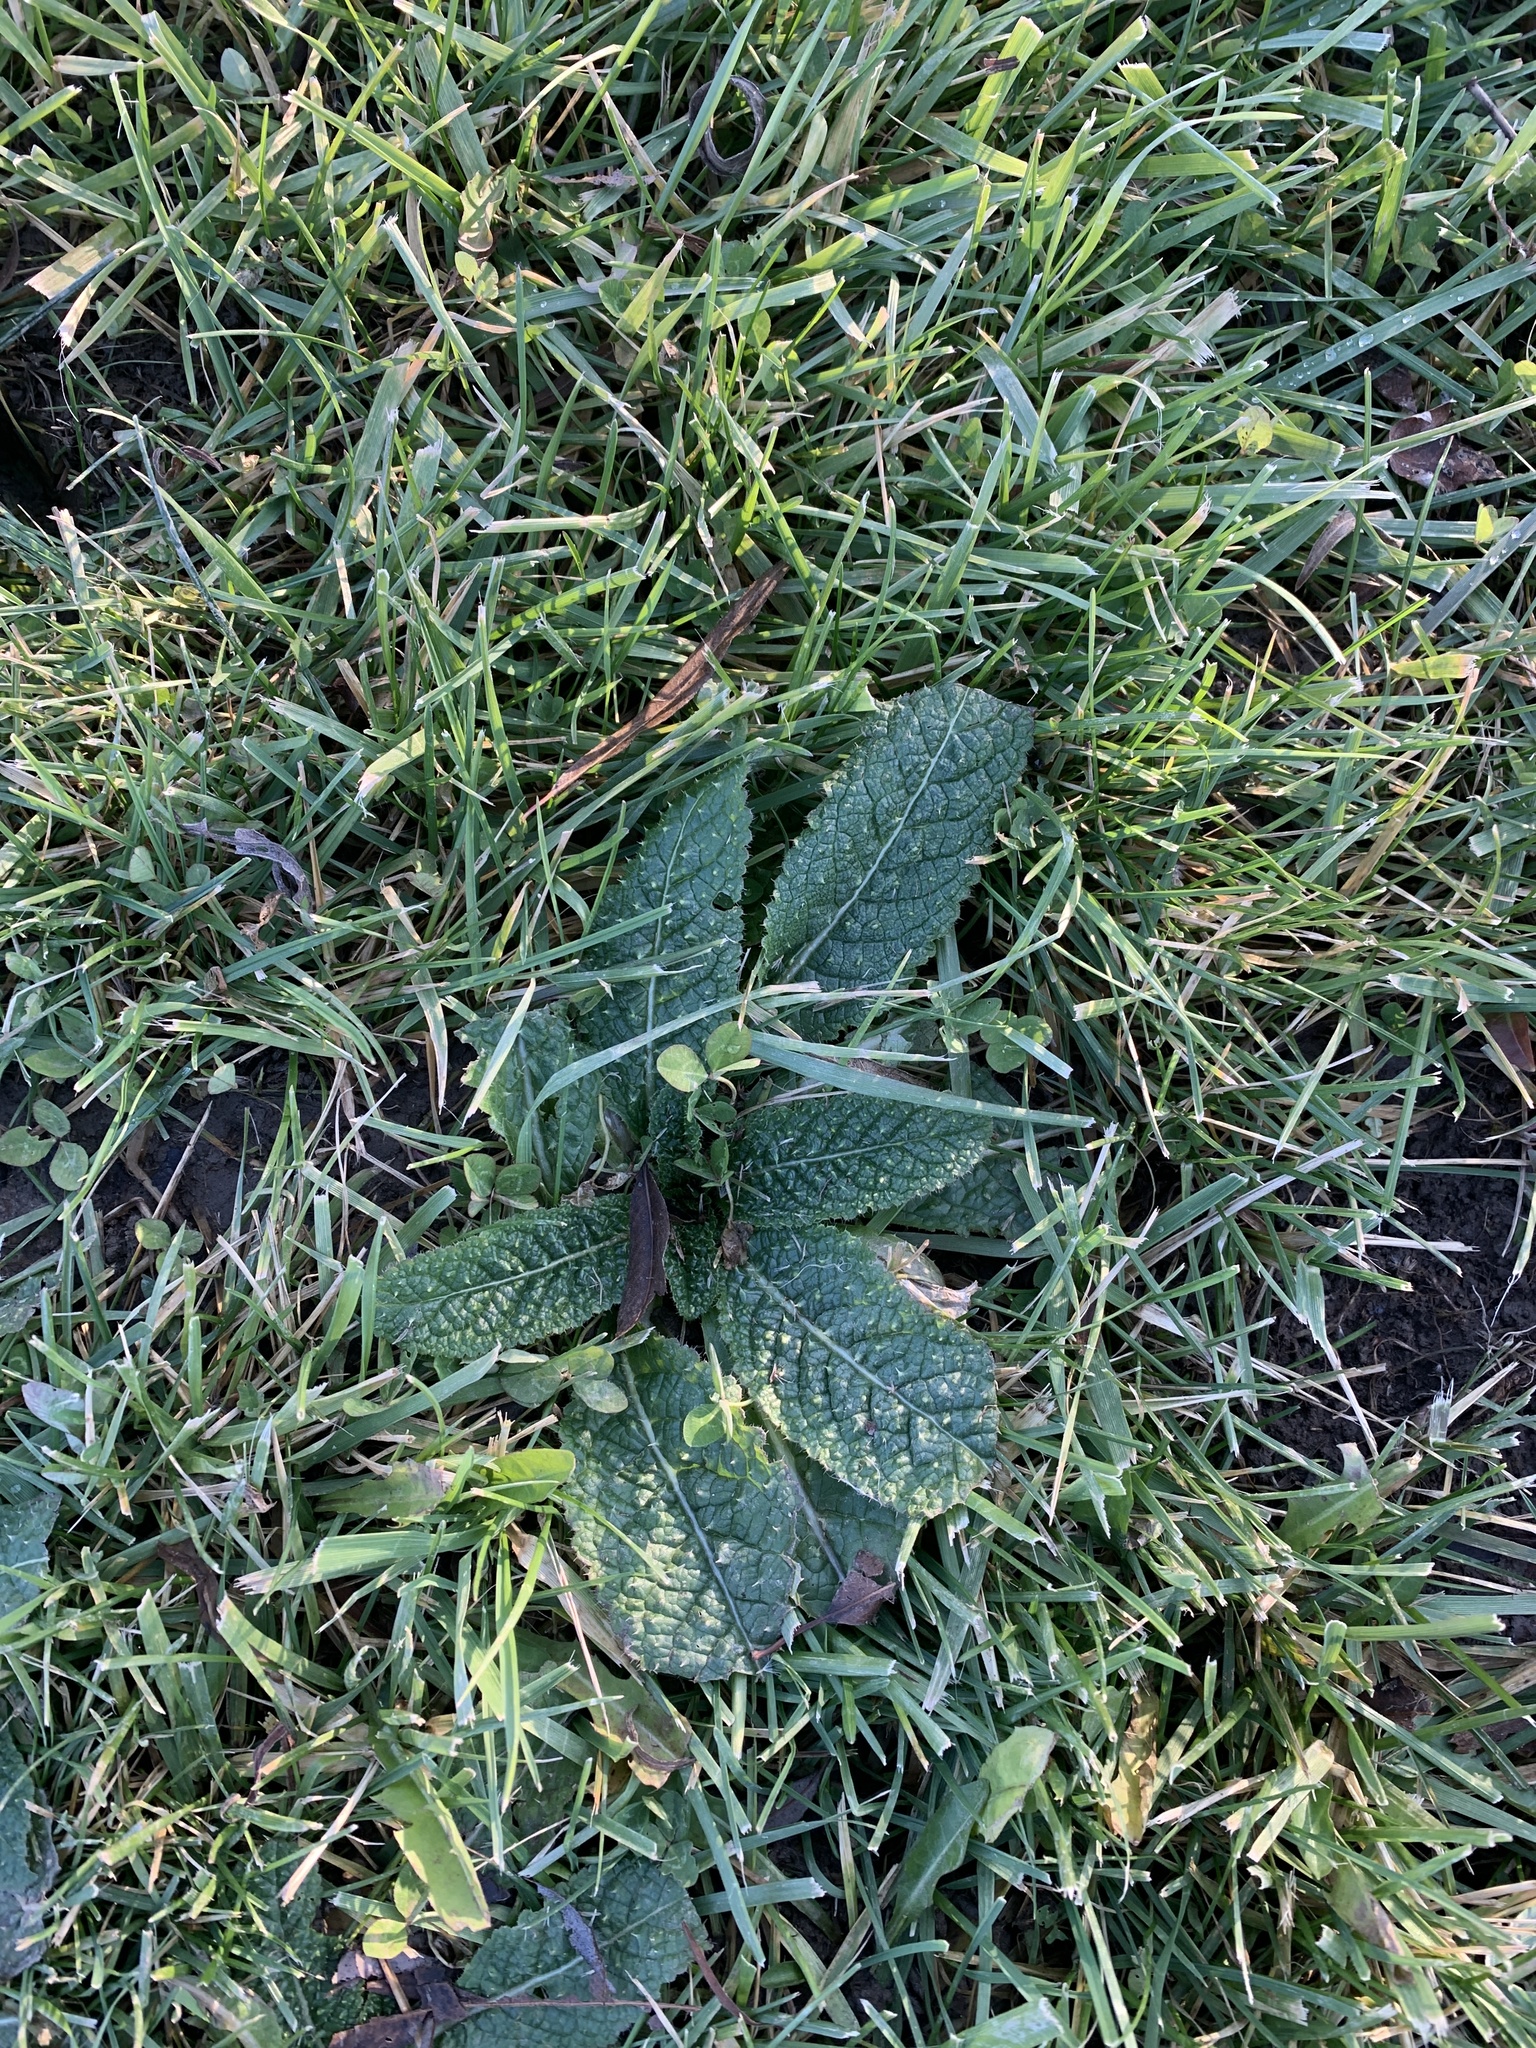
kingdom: Plantae
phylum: Tracheophyta
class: Magnoliopsida
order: Dipsacales
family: Caprifoliaceae
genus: Dipsacus
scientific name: Dipsacus fullonum
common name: Teasel
